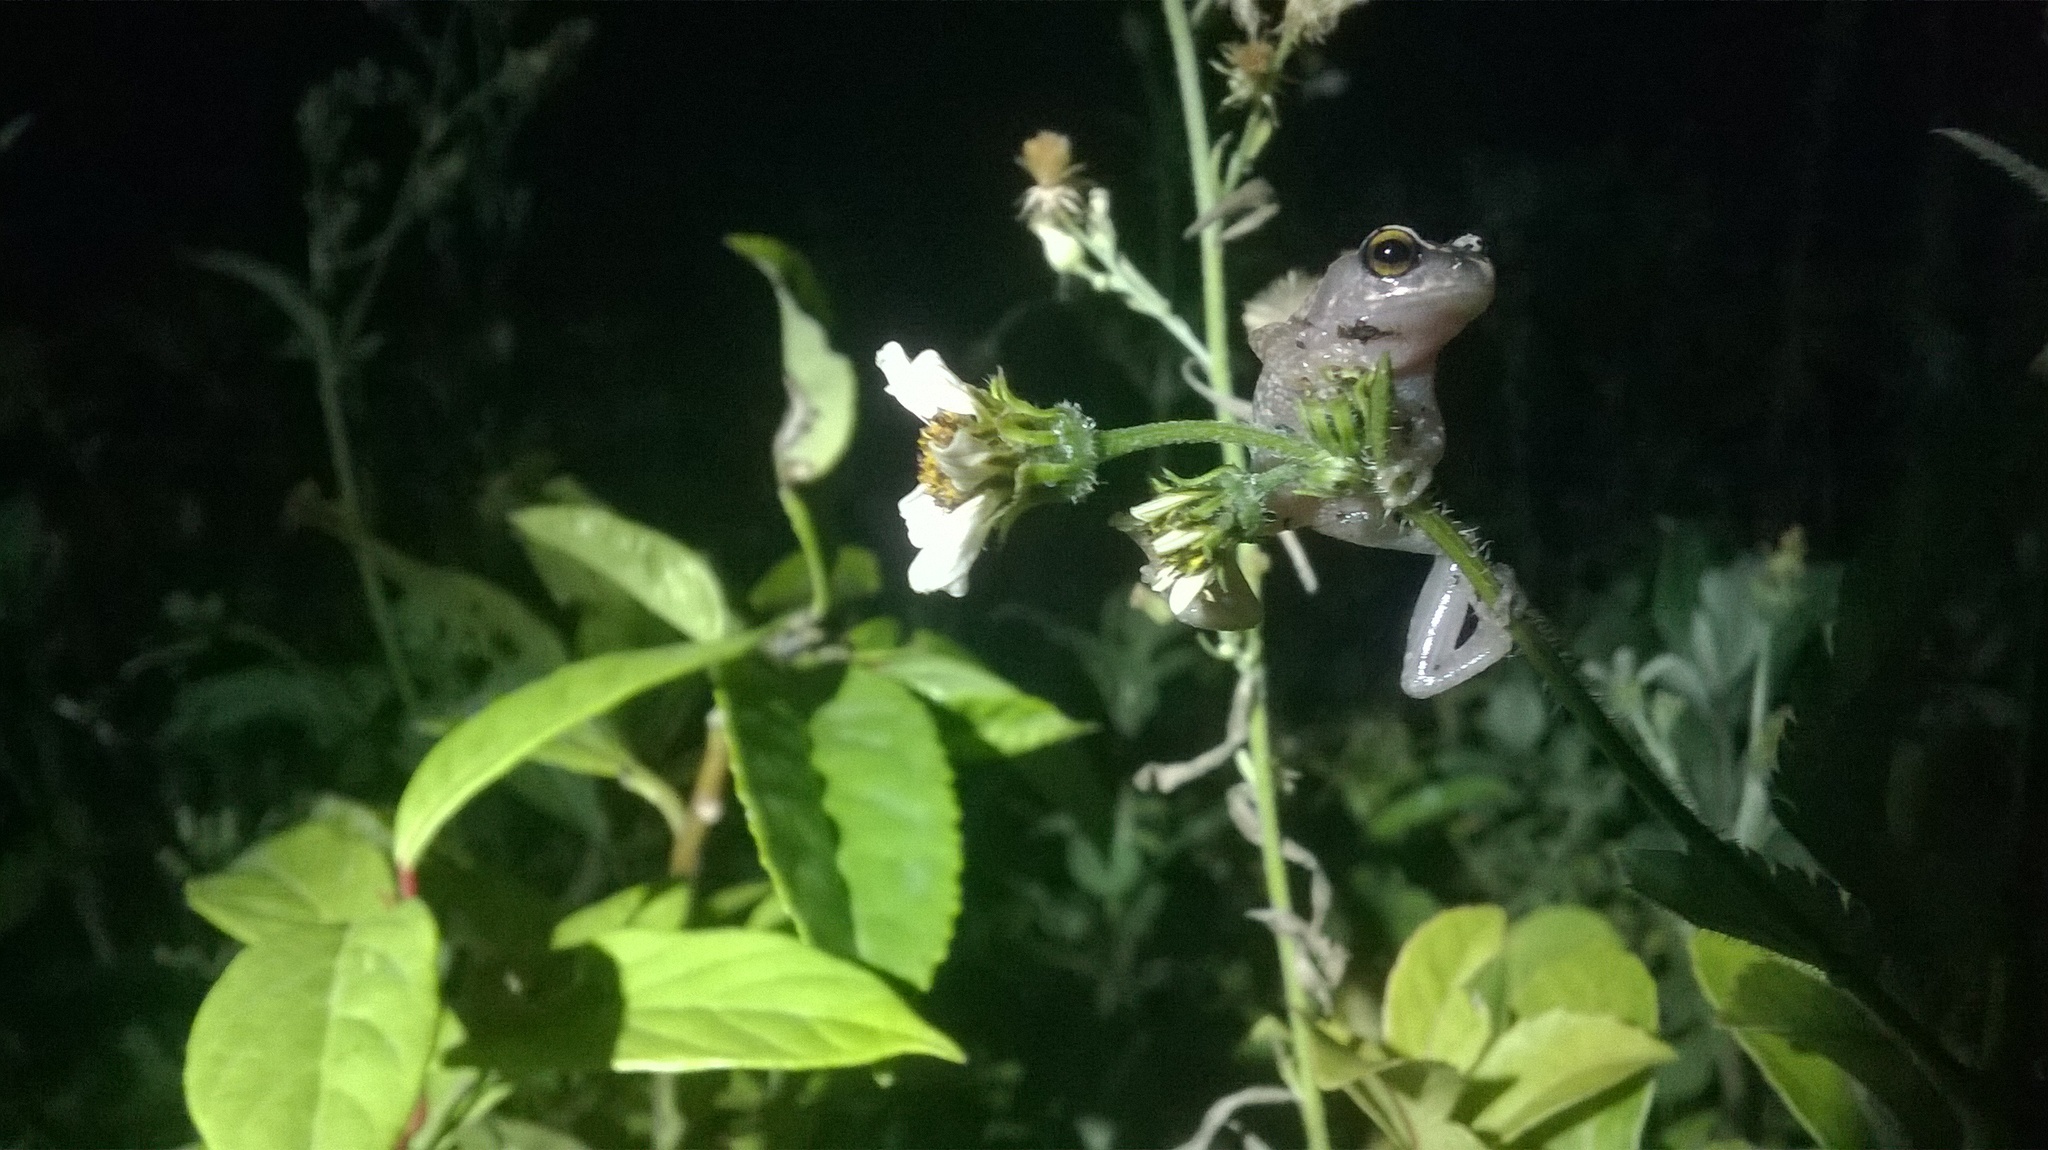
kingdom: Animalia
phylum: Chordata
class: Amphibia
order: Anura
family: Rhacophoridae
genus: Raorchestes
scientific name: Raorchestes dubois
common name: Koadaikanal bush frog
